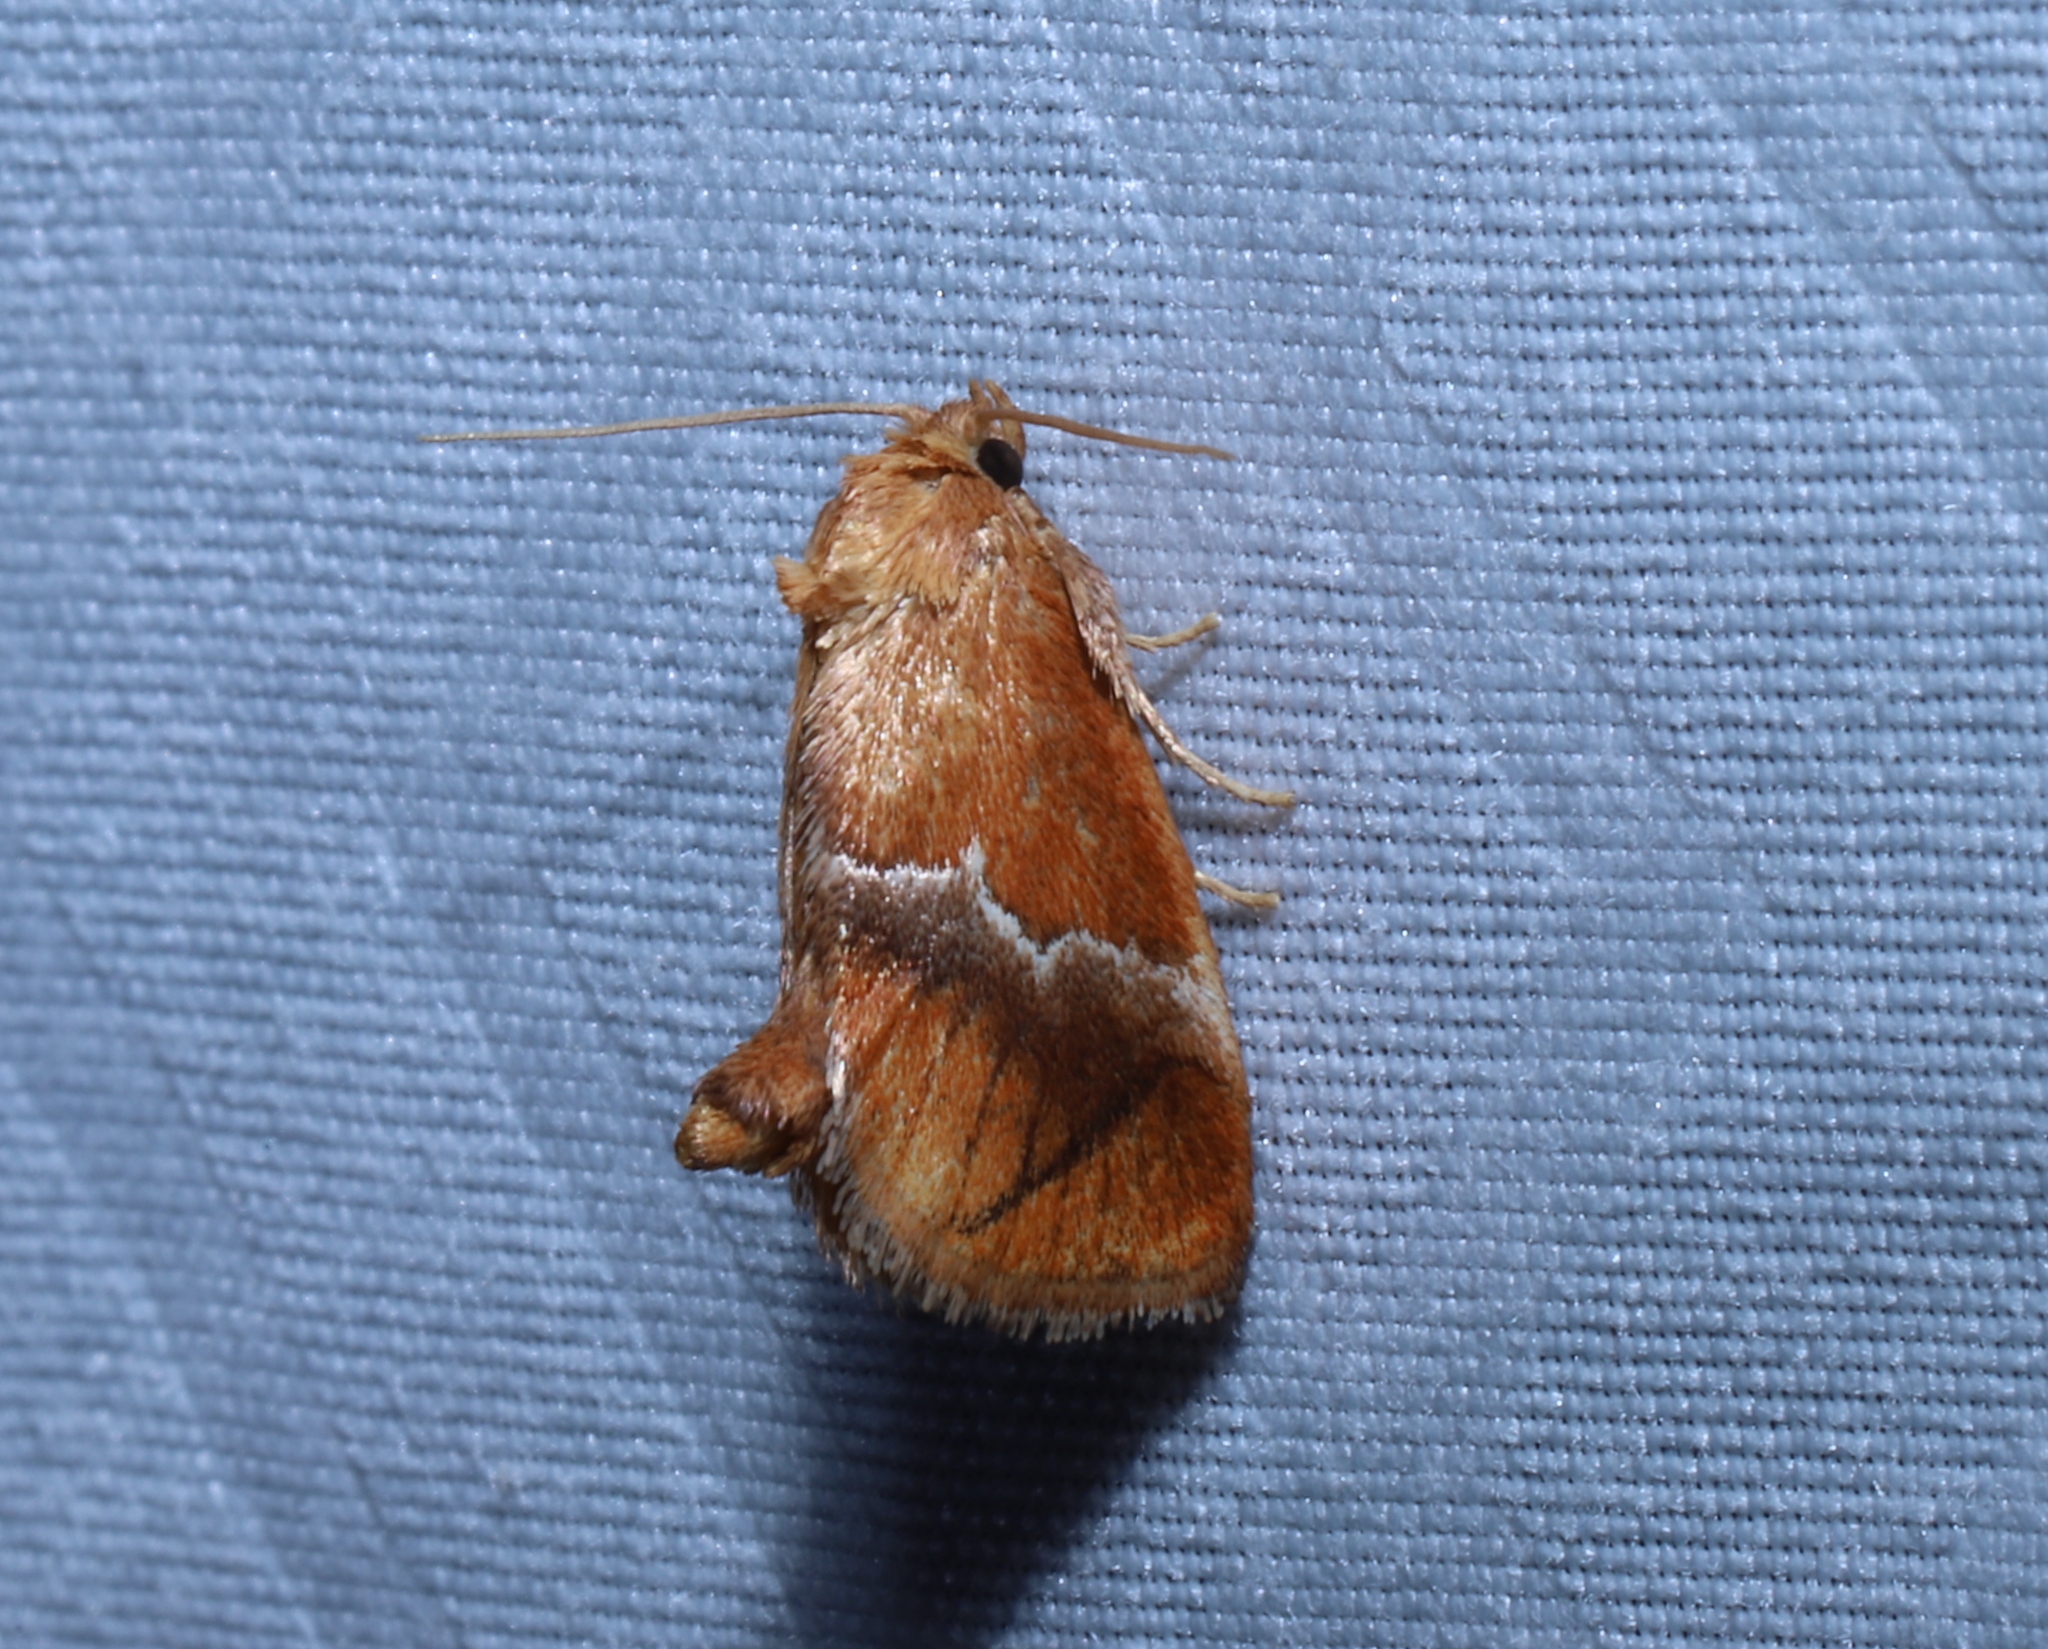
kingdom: Animalia
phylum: Arthropoda
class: Insecta
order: Lepidoptera
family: Limacodidae
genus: Lithacodes
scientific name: Lithacodes fasciola
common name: Yellow-shouldered slug moth
